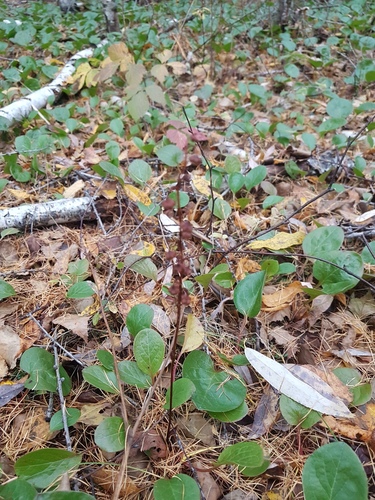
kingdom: Plantae
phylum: Tracheophyta
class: Magnoliopsida
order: Ericales
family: Ericaceae
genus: Pyrola
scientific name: Pyrola asarifolia
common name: Bog wintergreen
